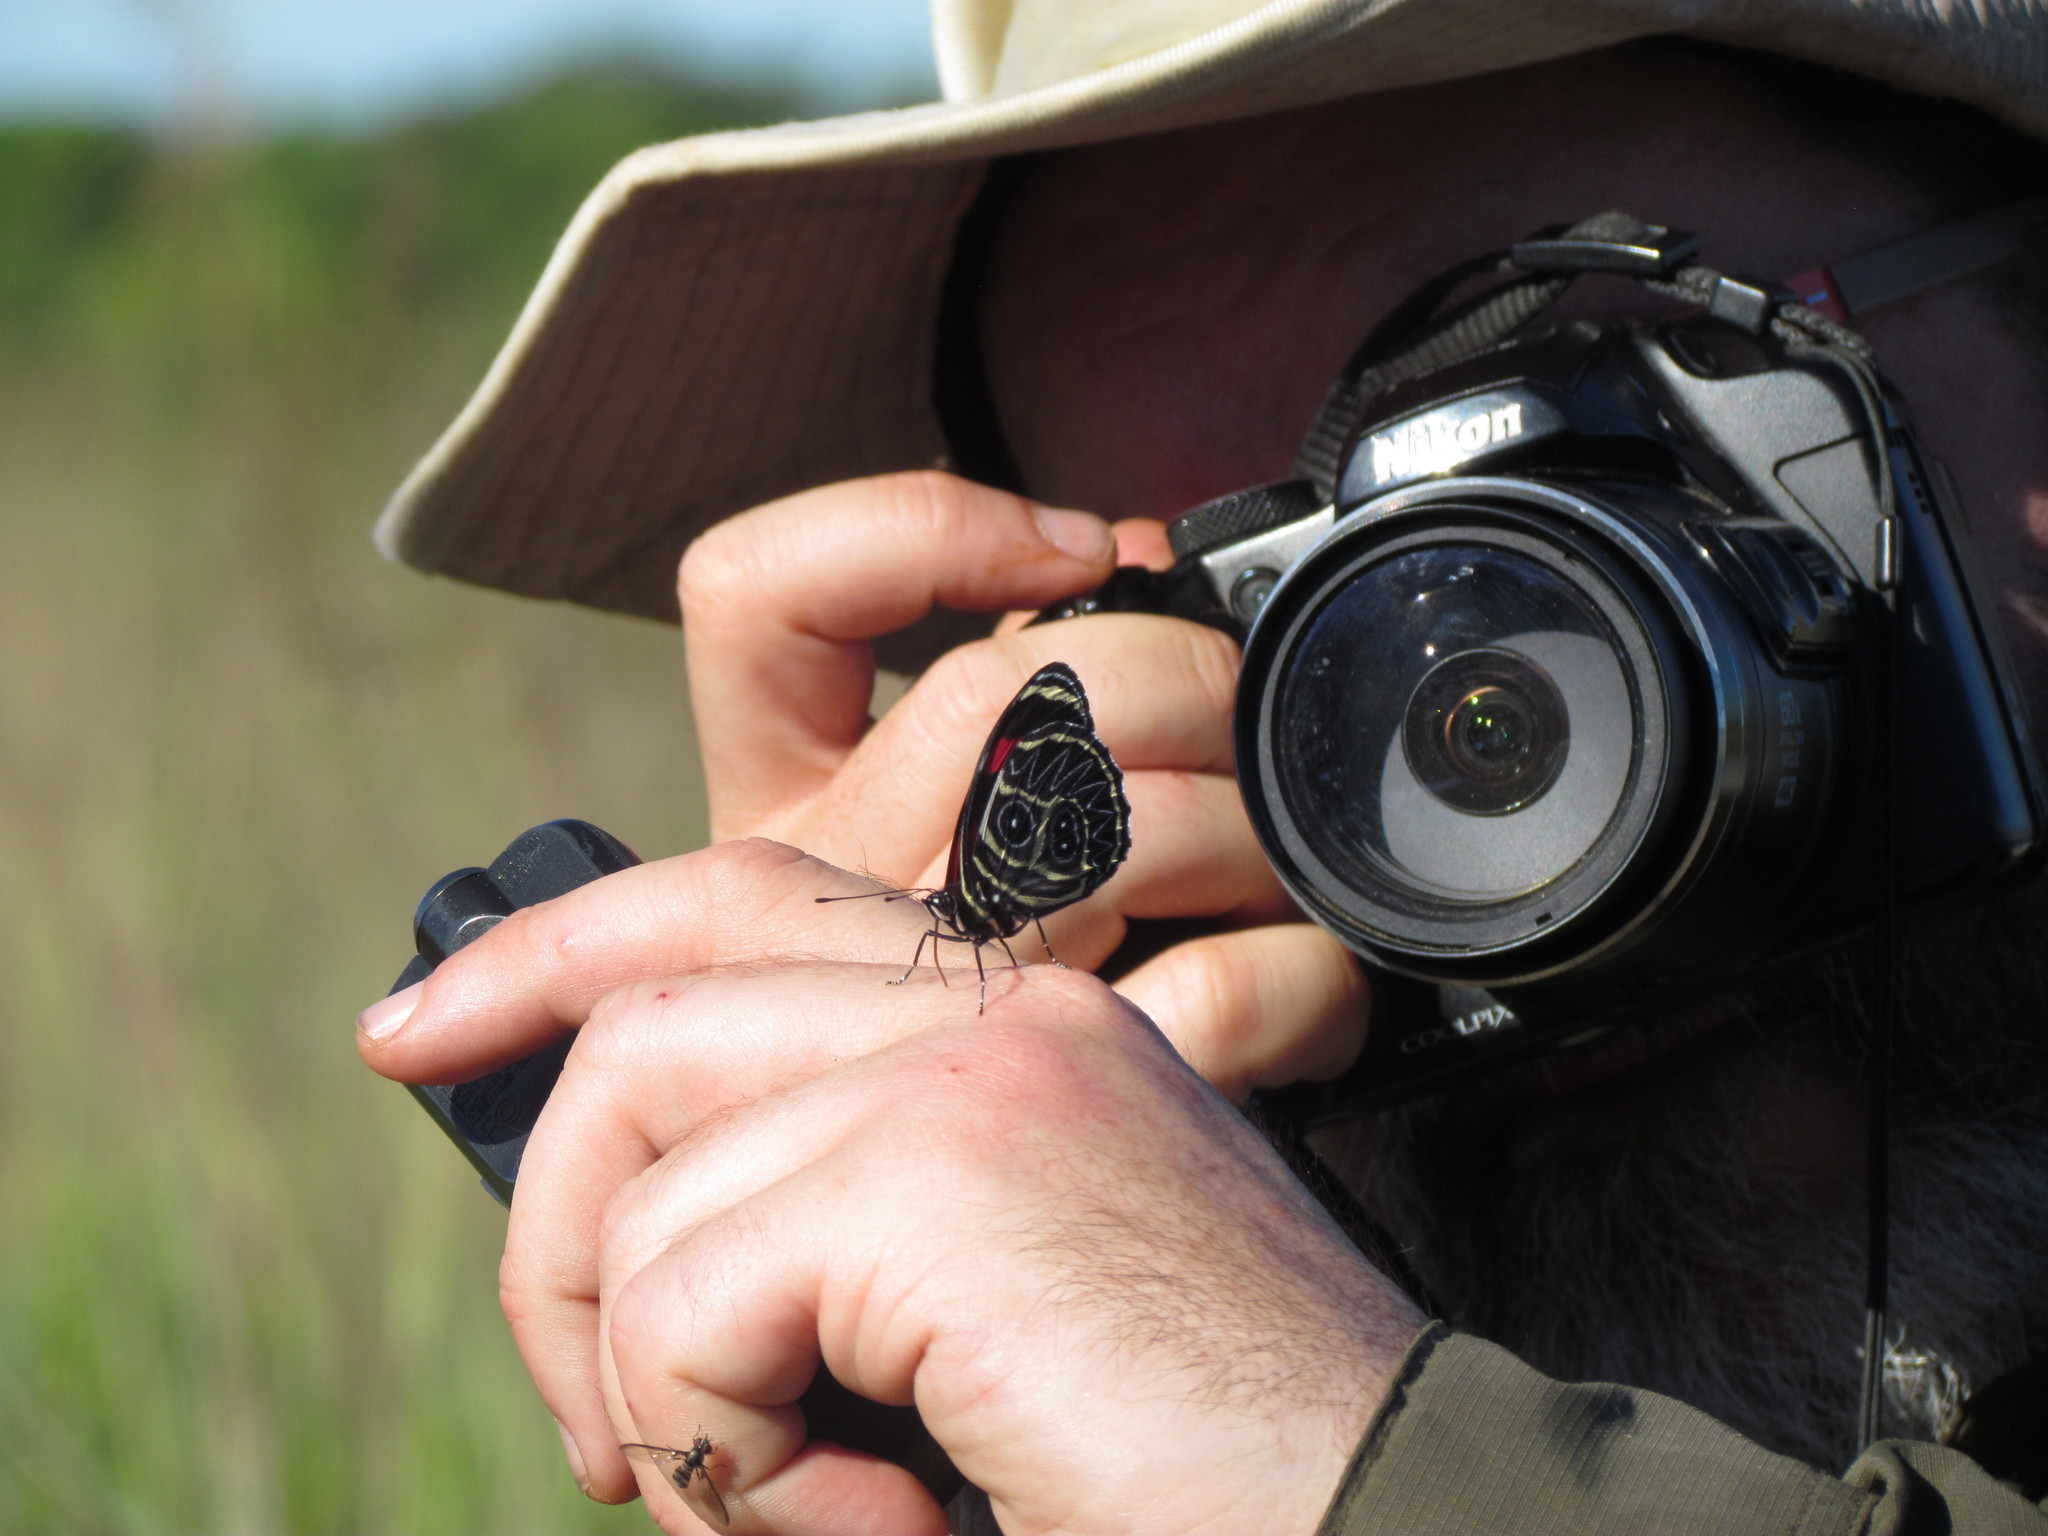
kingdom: Animalia
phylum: Arthropoda
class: Insecta
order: Lepidoptera
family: Nymphalidae
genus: Catagramma
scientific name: Catagramma Callicore sorana
